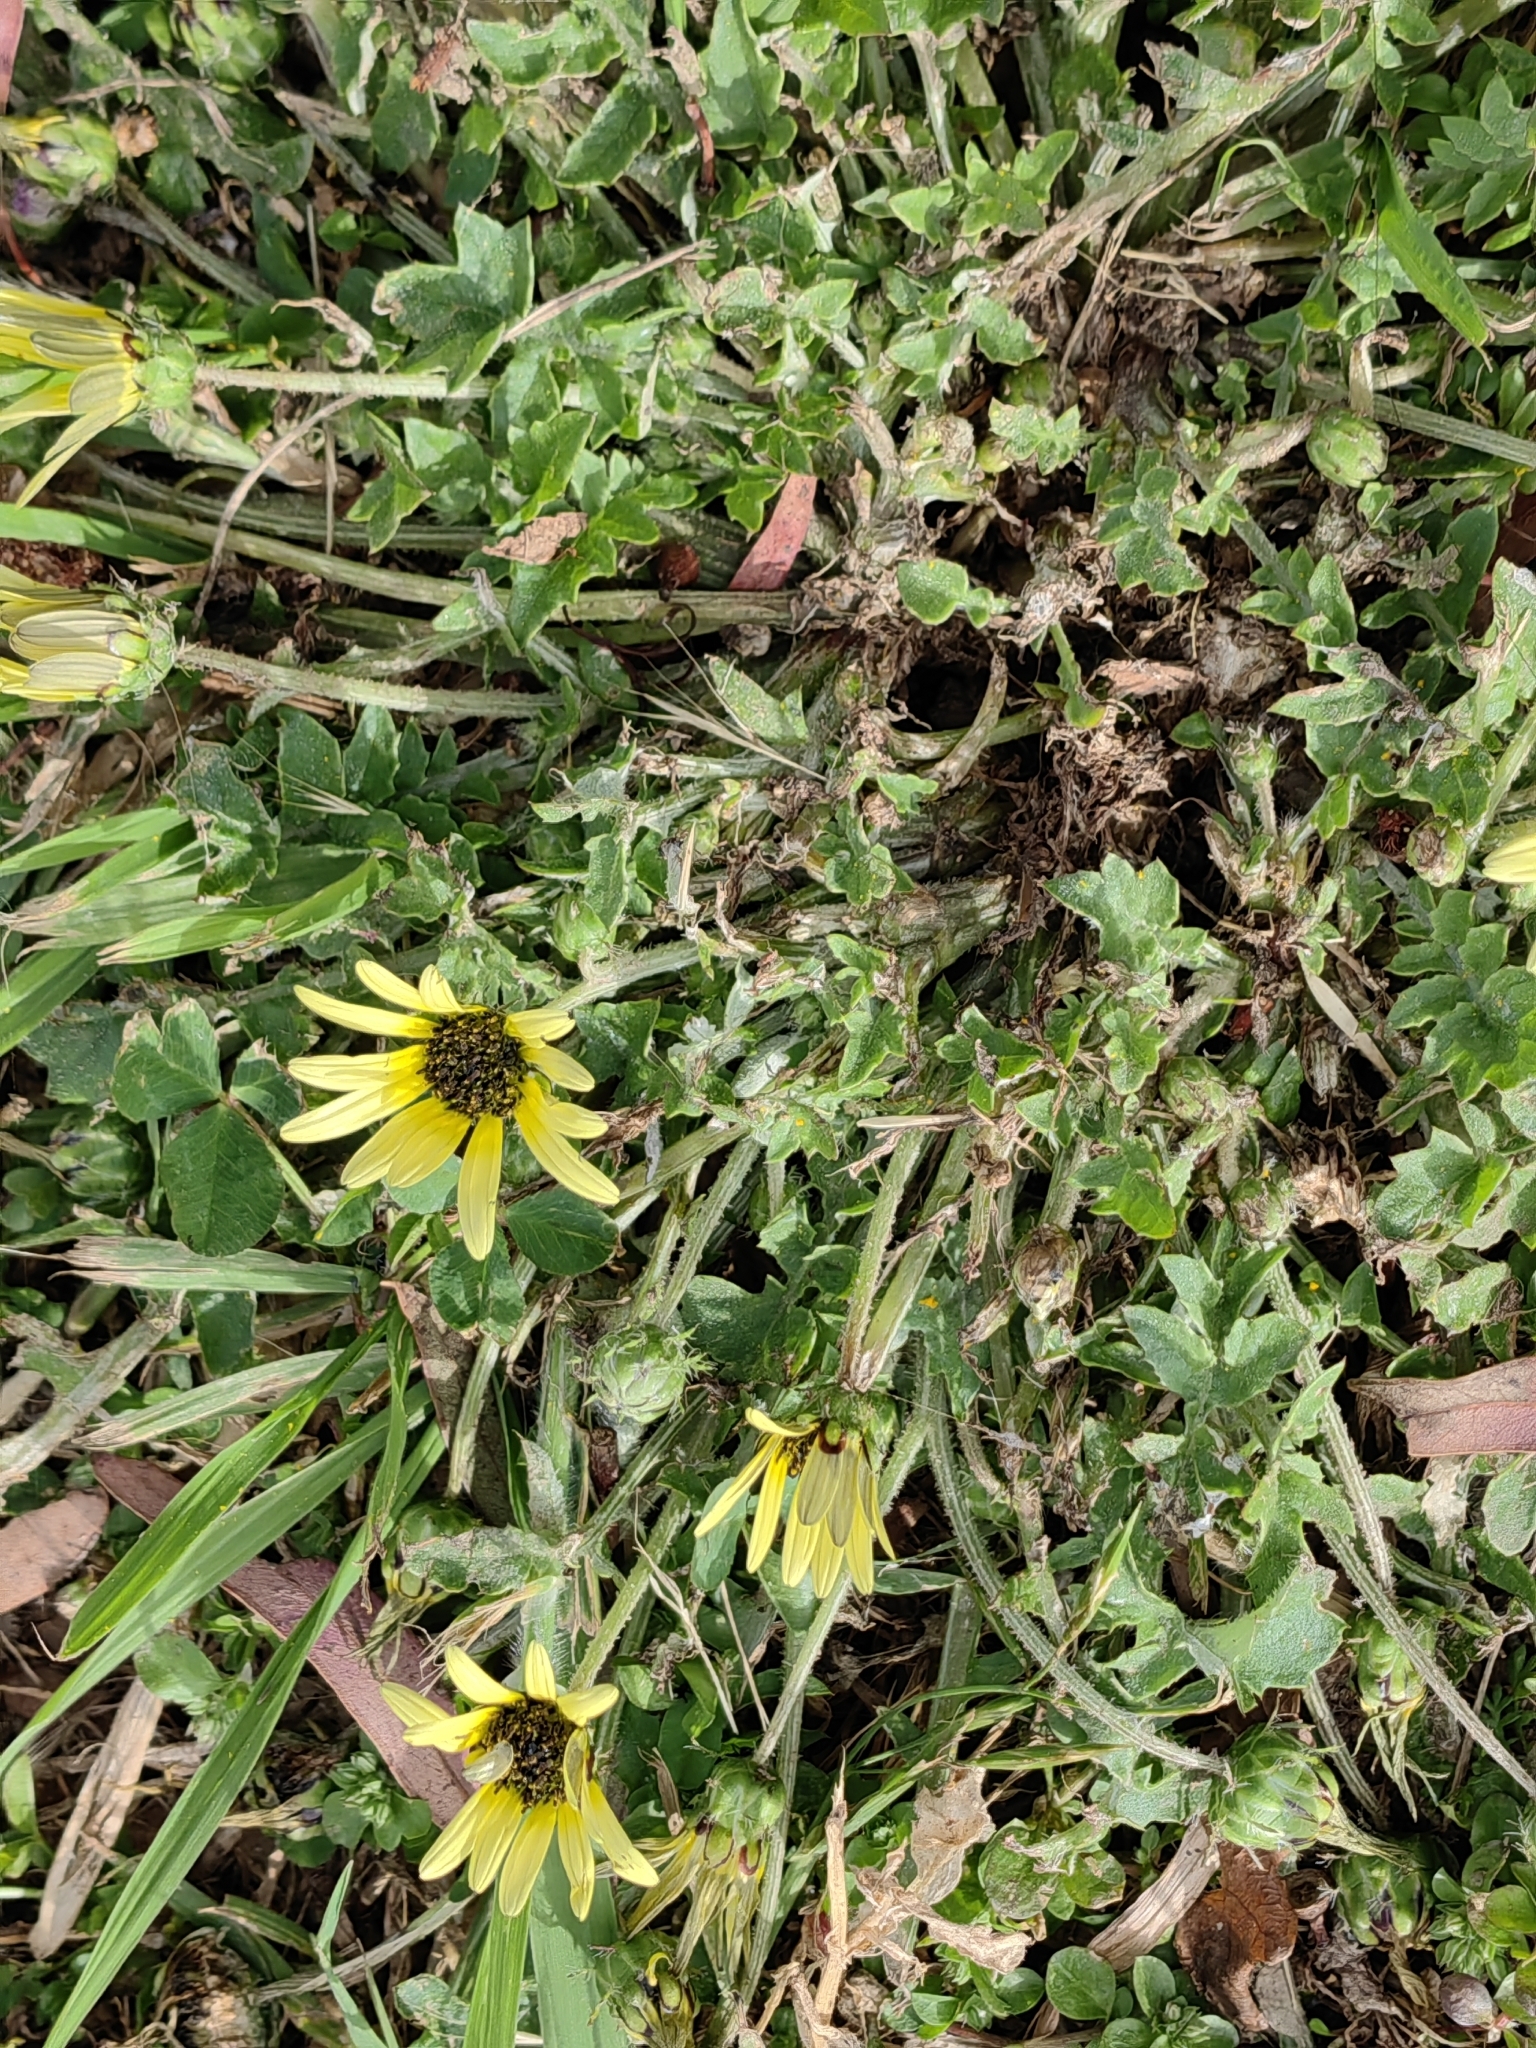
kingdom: Plantae
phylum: Tracheophyta
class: Magnoliopsida
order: Asterales
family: Asteraceae
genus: Arctotheca
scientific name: Arctotheca calendula
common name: Capeweed
